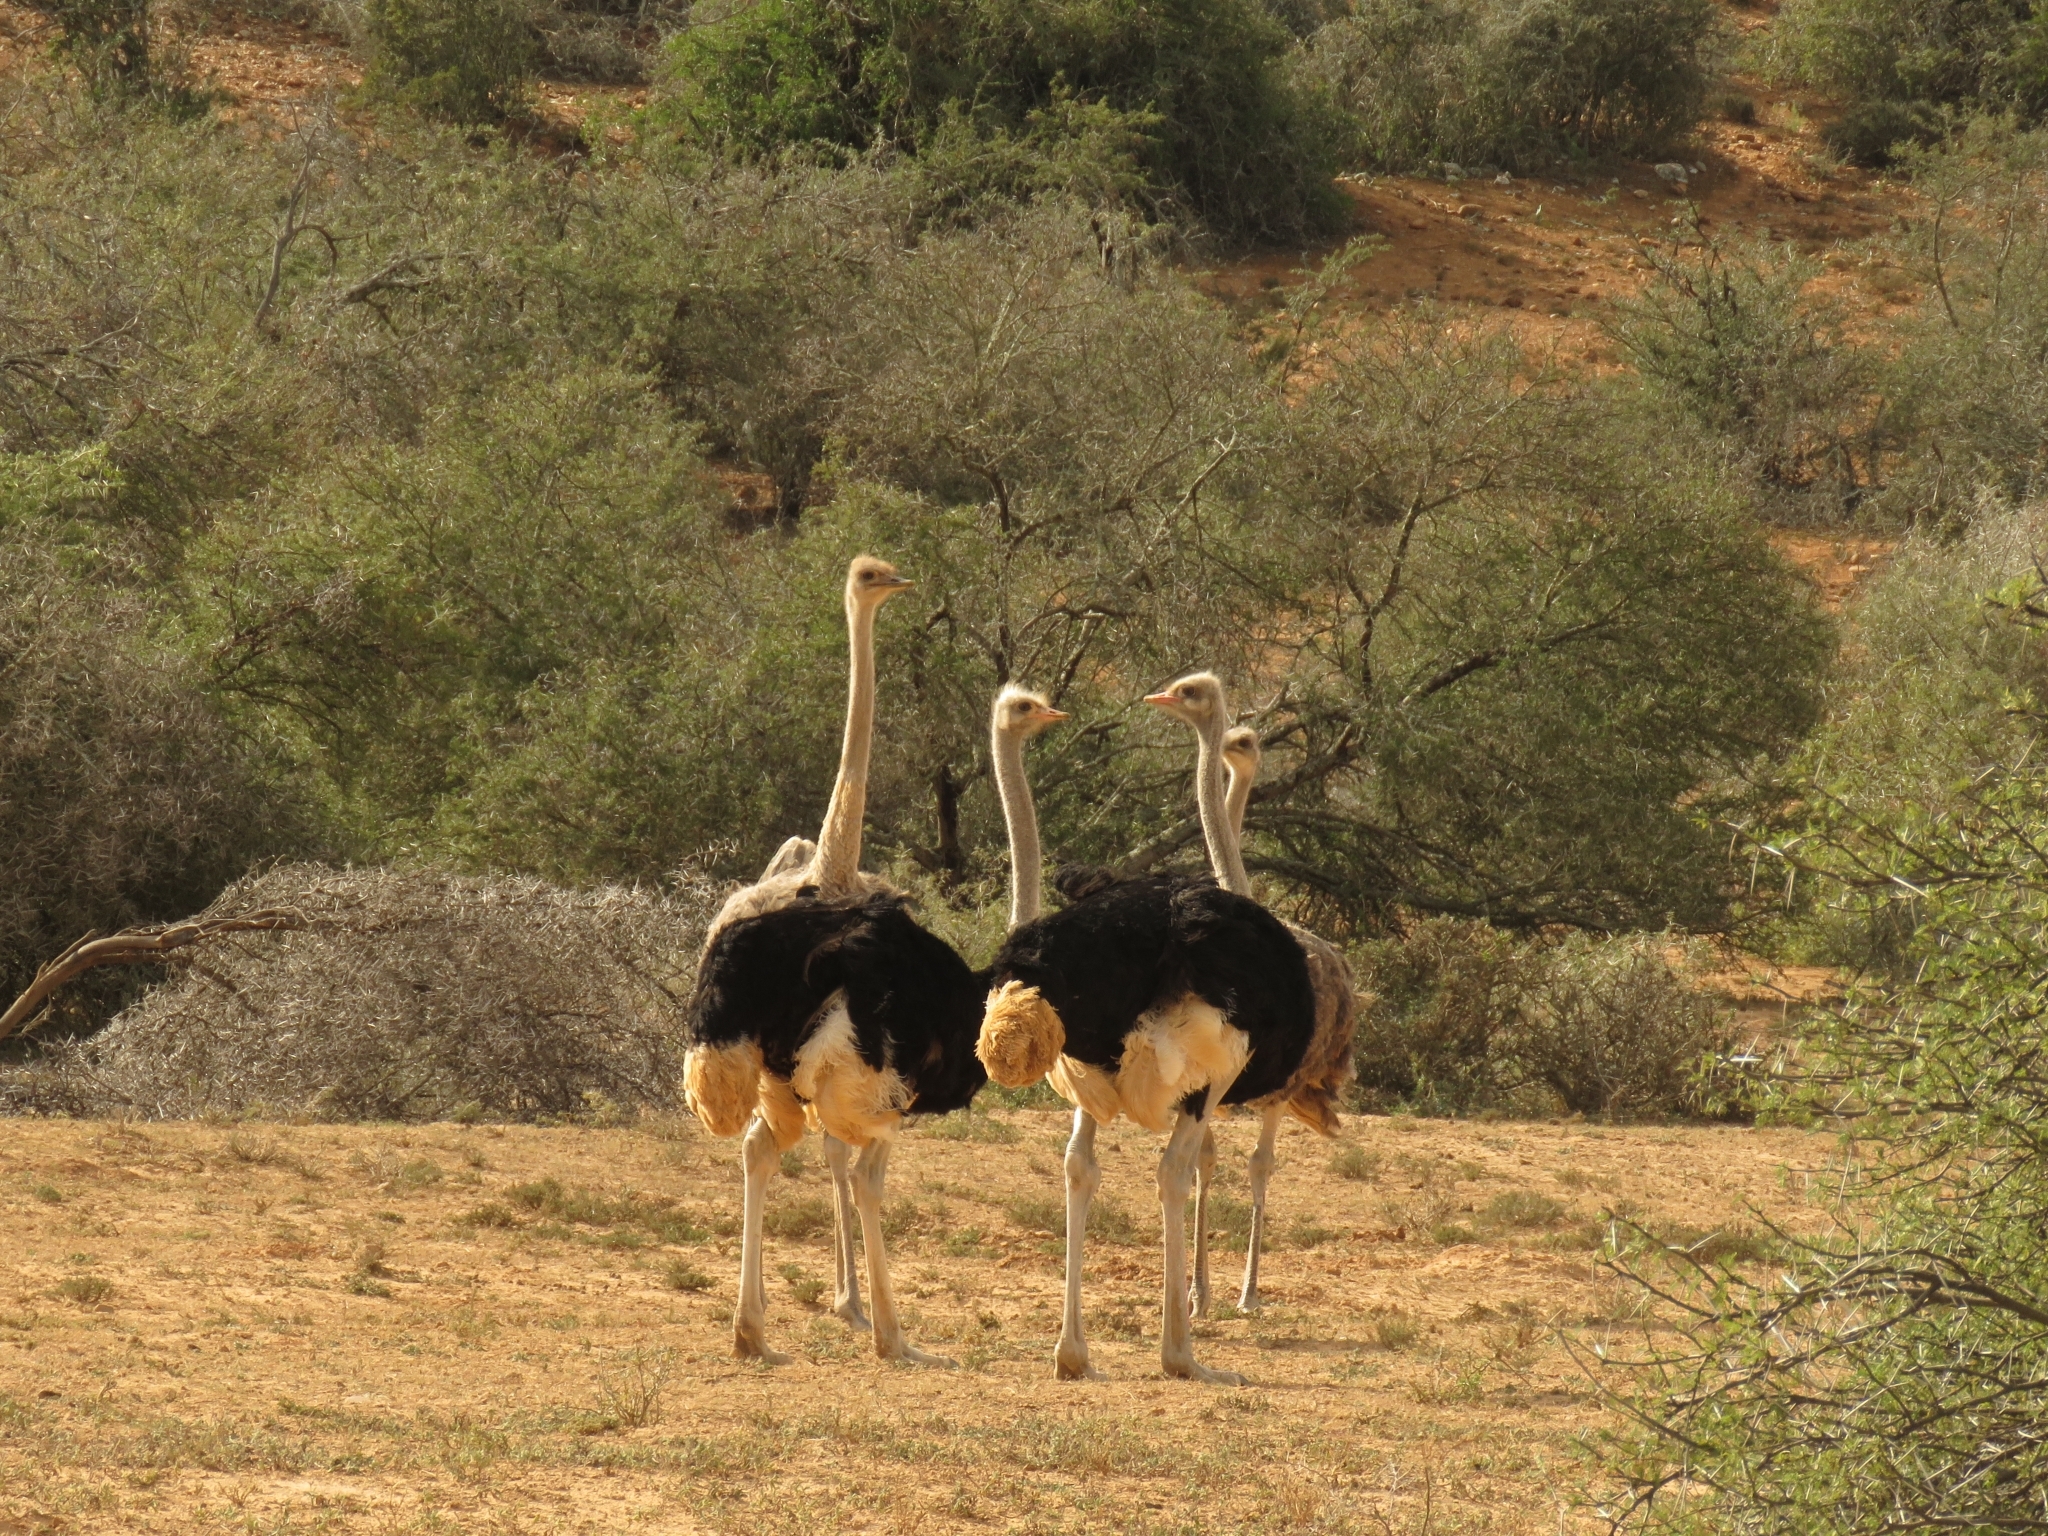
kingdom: Animalia
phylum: Chordata
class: Aves
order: Struthioniformes
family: Struthionidae
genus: Struthio
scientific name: Struthio camelus
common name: Common ostrich
